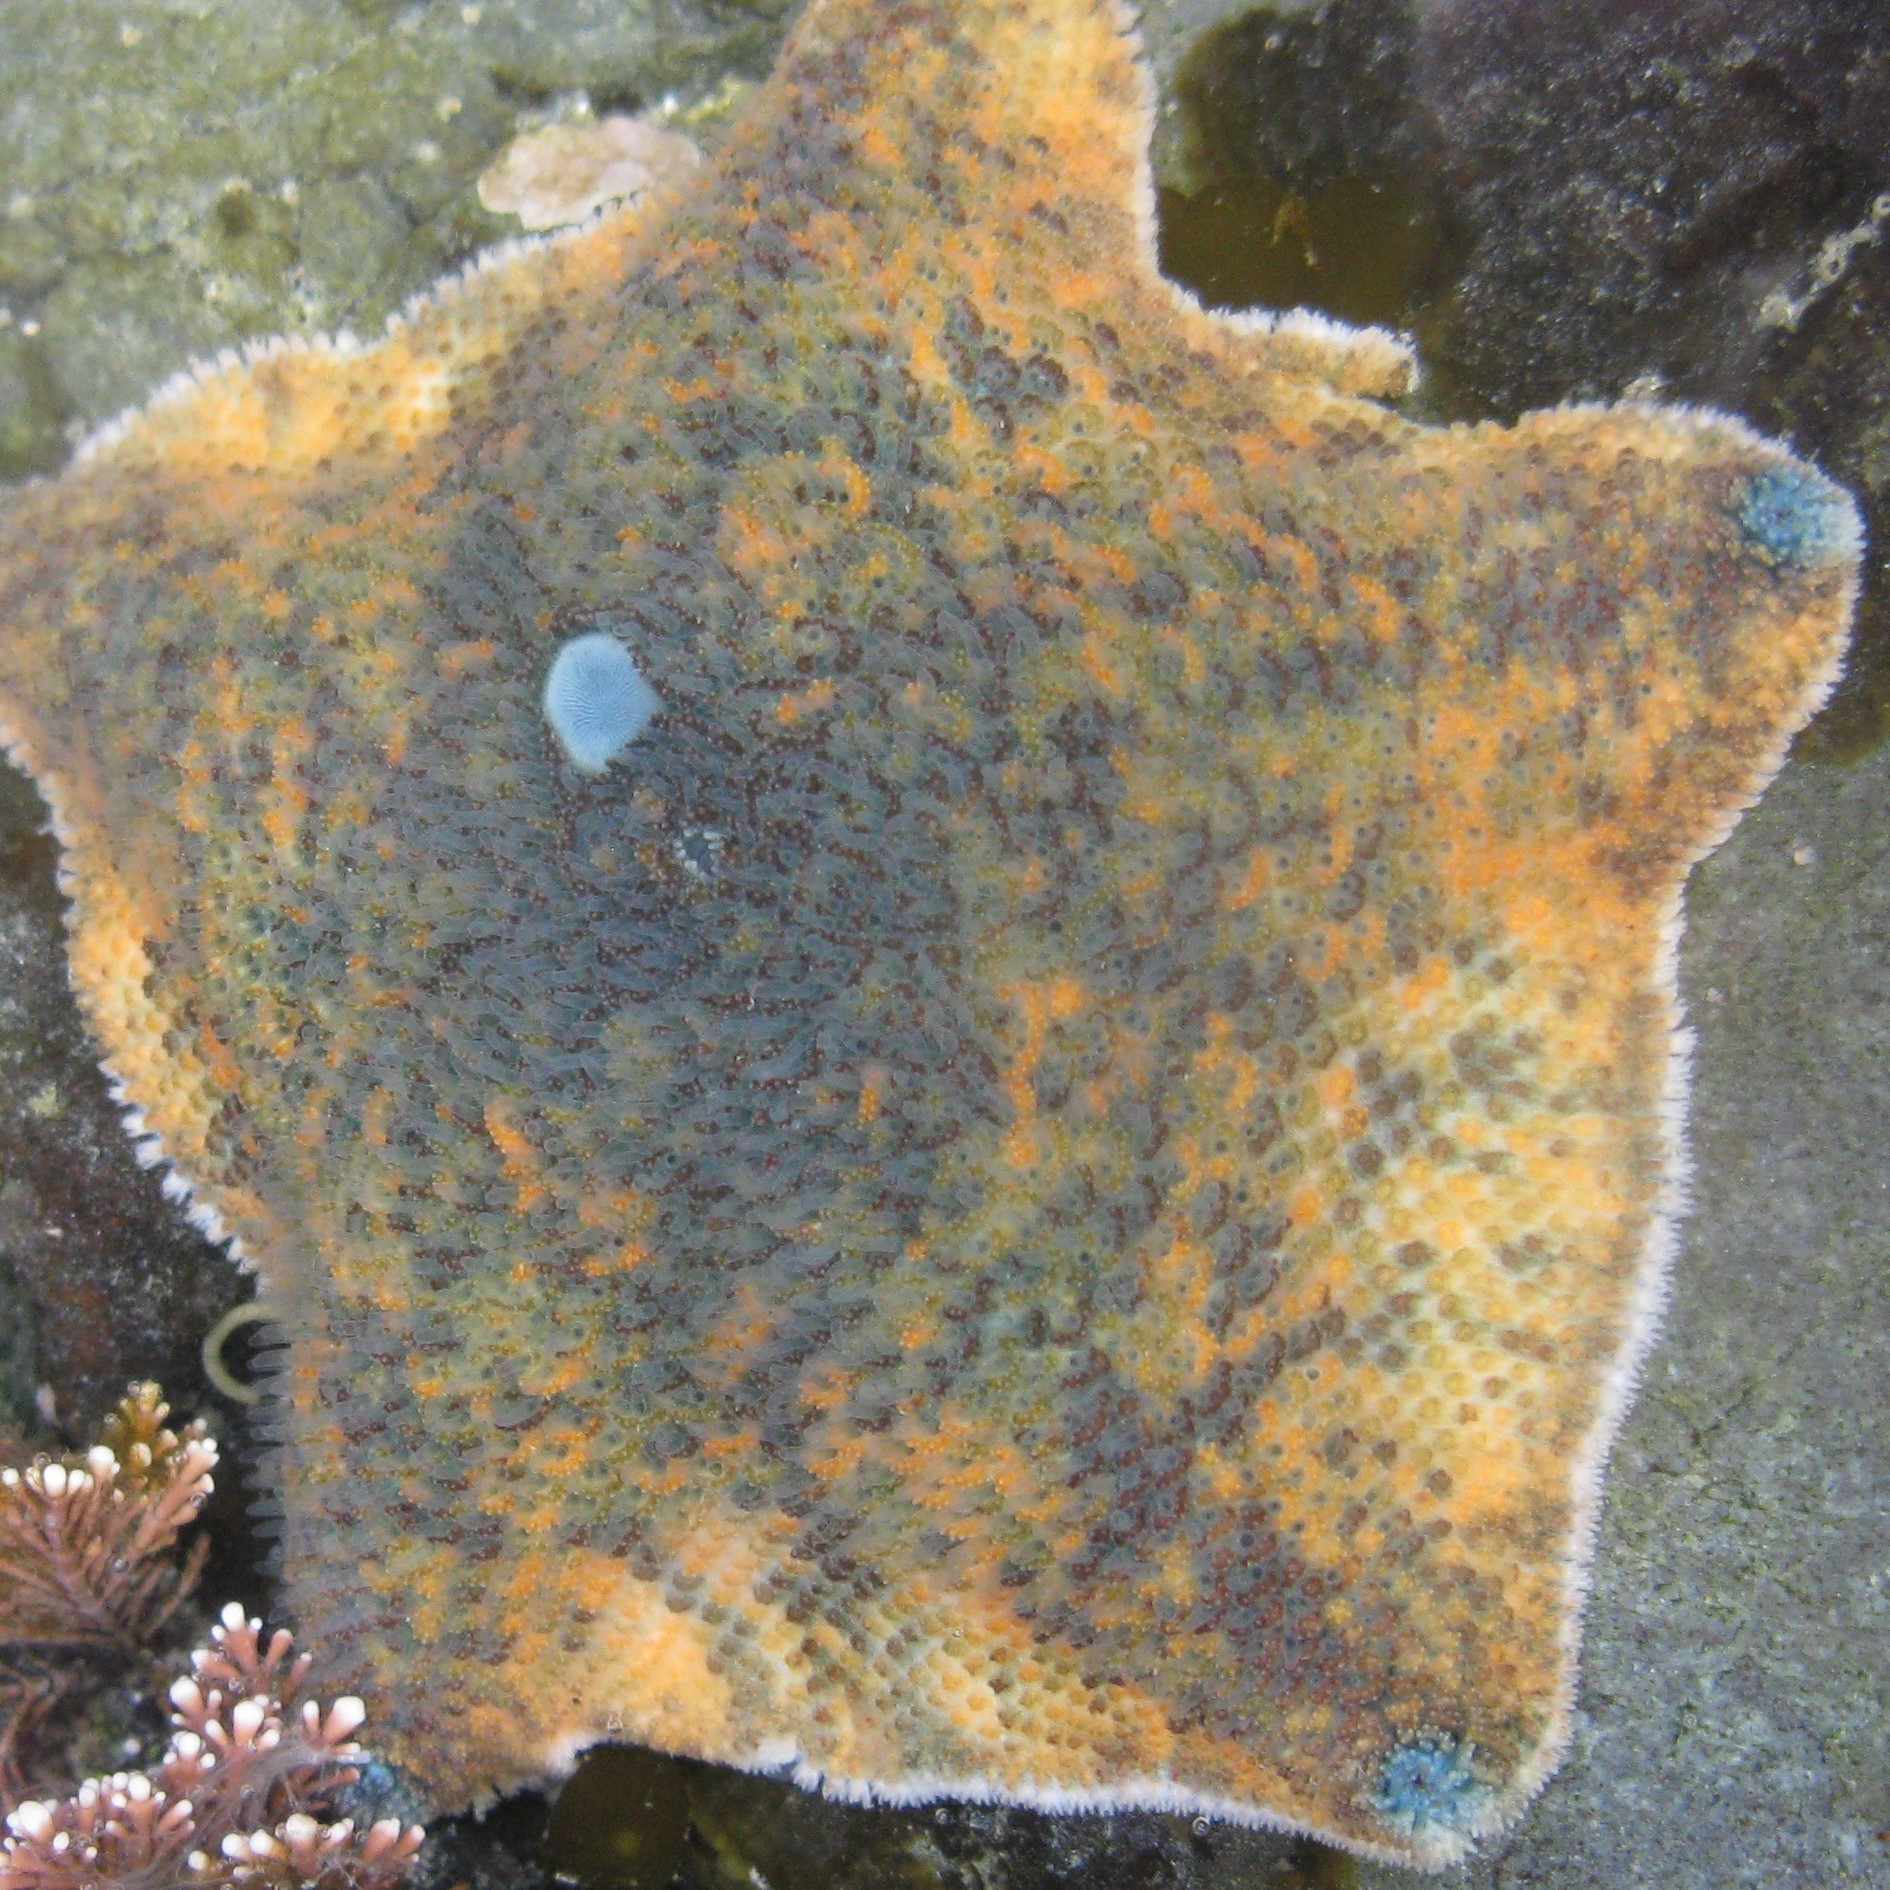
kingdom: Animalia
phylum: Echinodermata
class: Asteroidea
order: Valvatida
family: Asterinidae
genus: Patiriella
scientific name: Patiriella regularis
